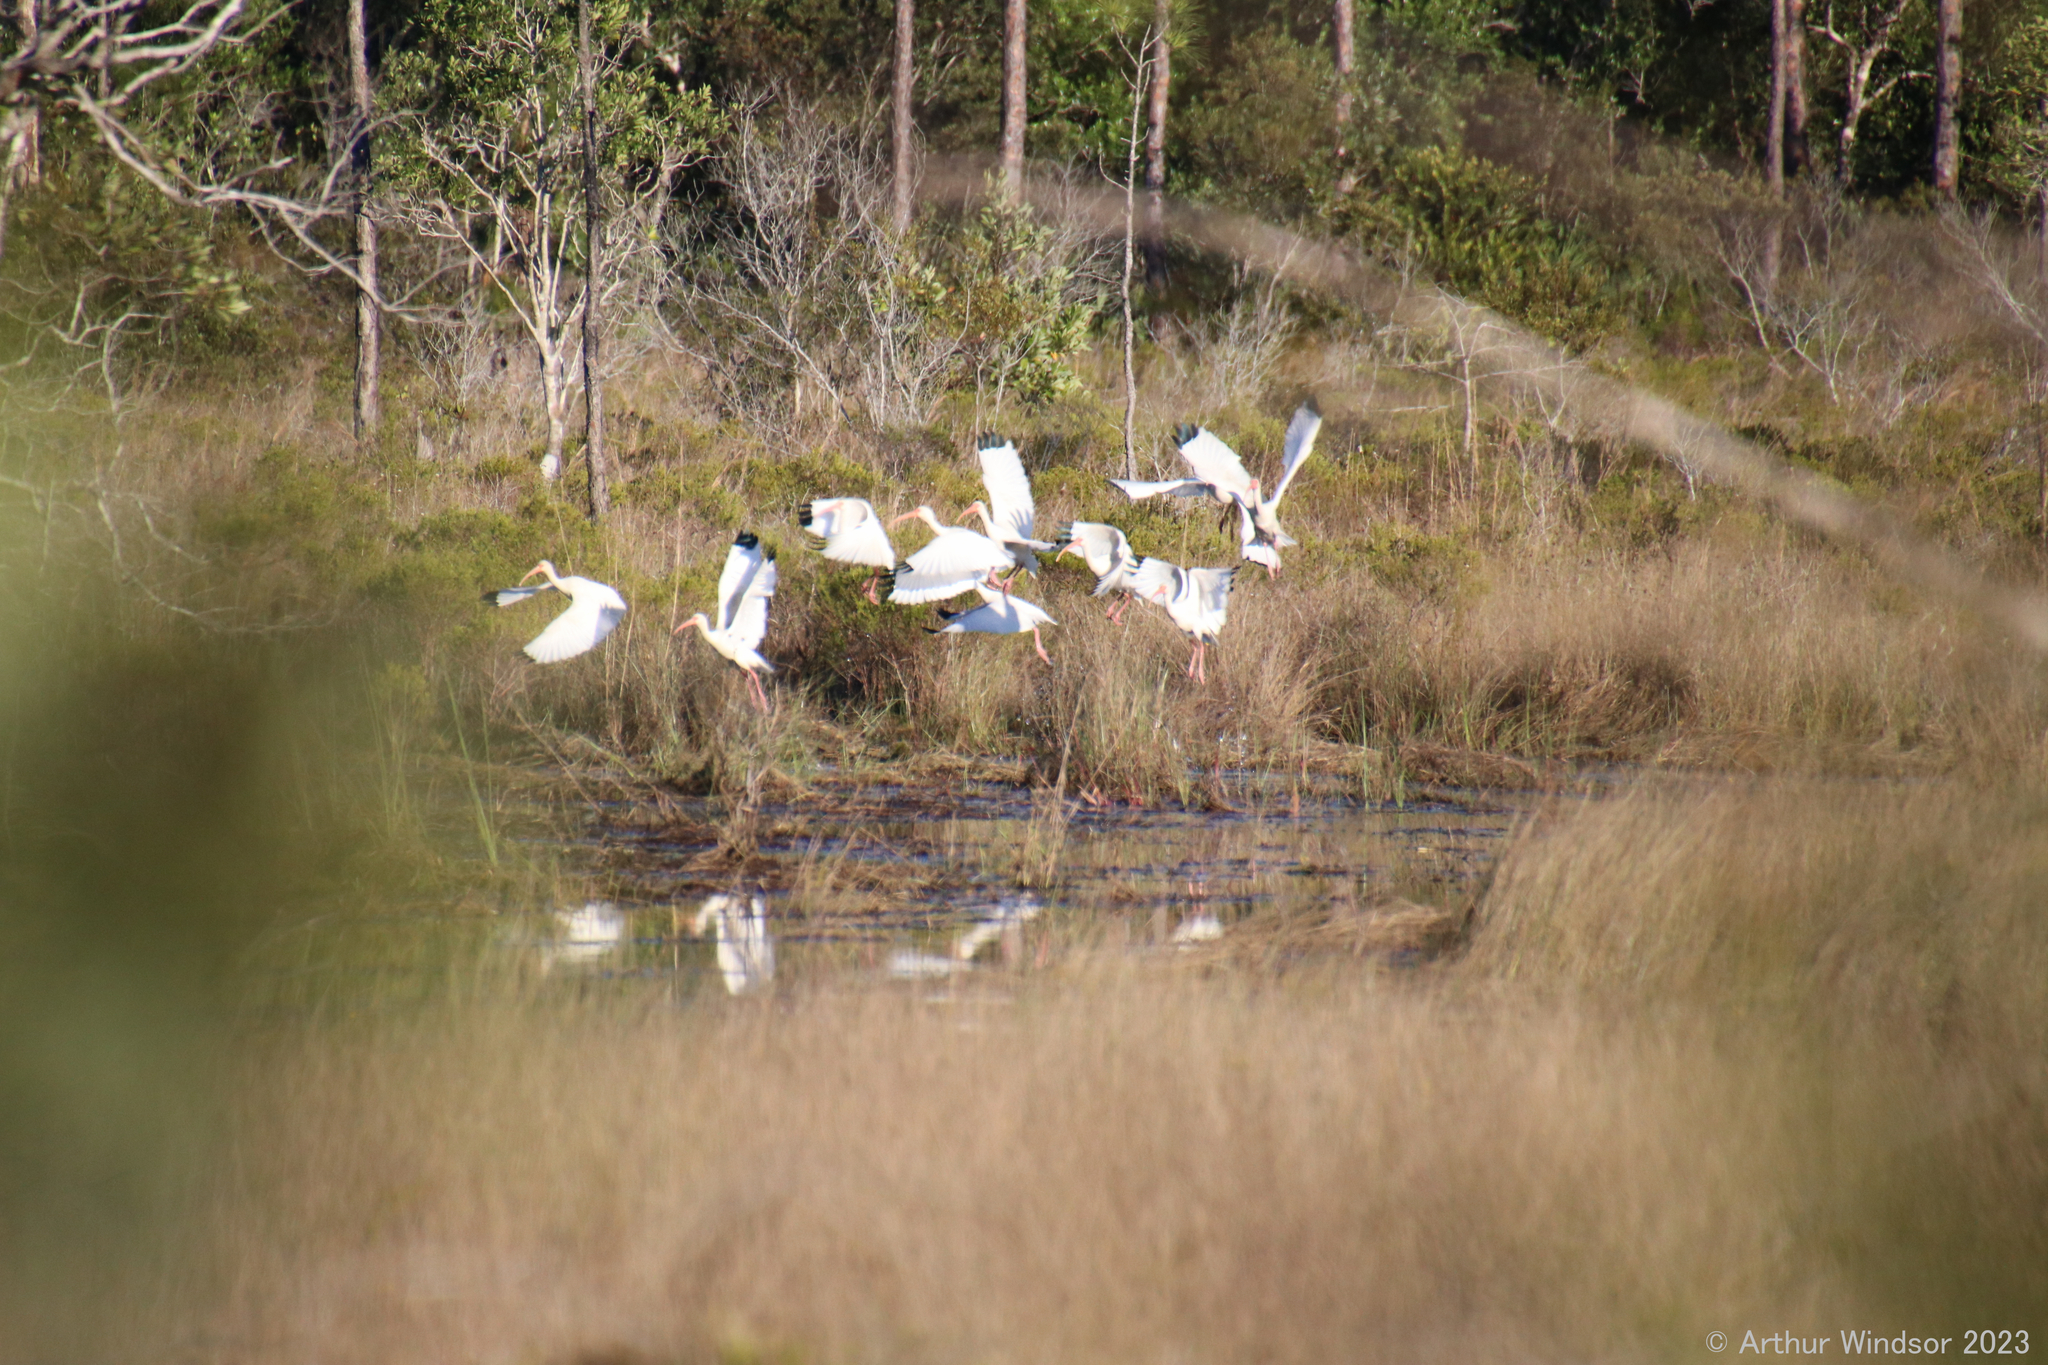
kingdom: Animalia
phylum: Chordata
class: Aves
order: Pelecaniformes
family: Threskiornithidae
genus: Eudocimus
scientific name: Eudocimus albus
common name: White ibis
